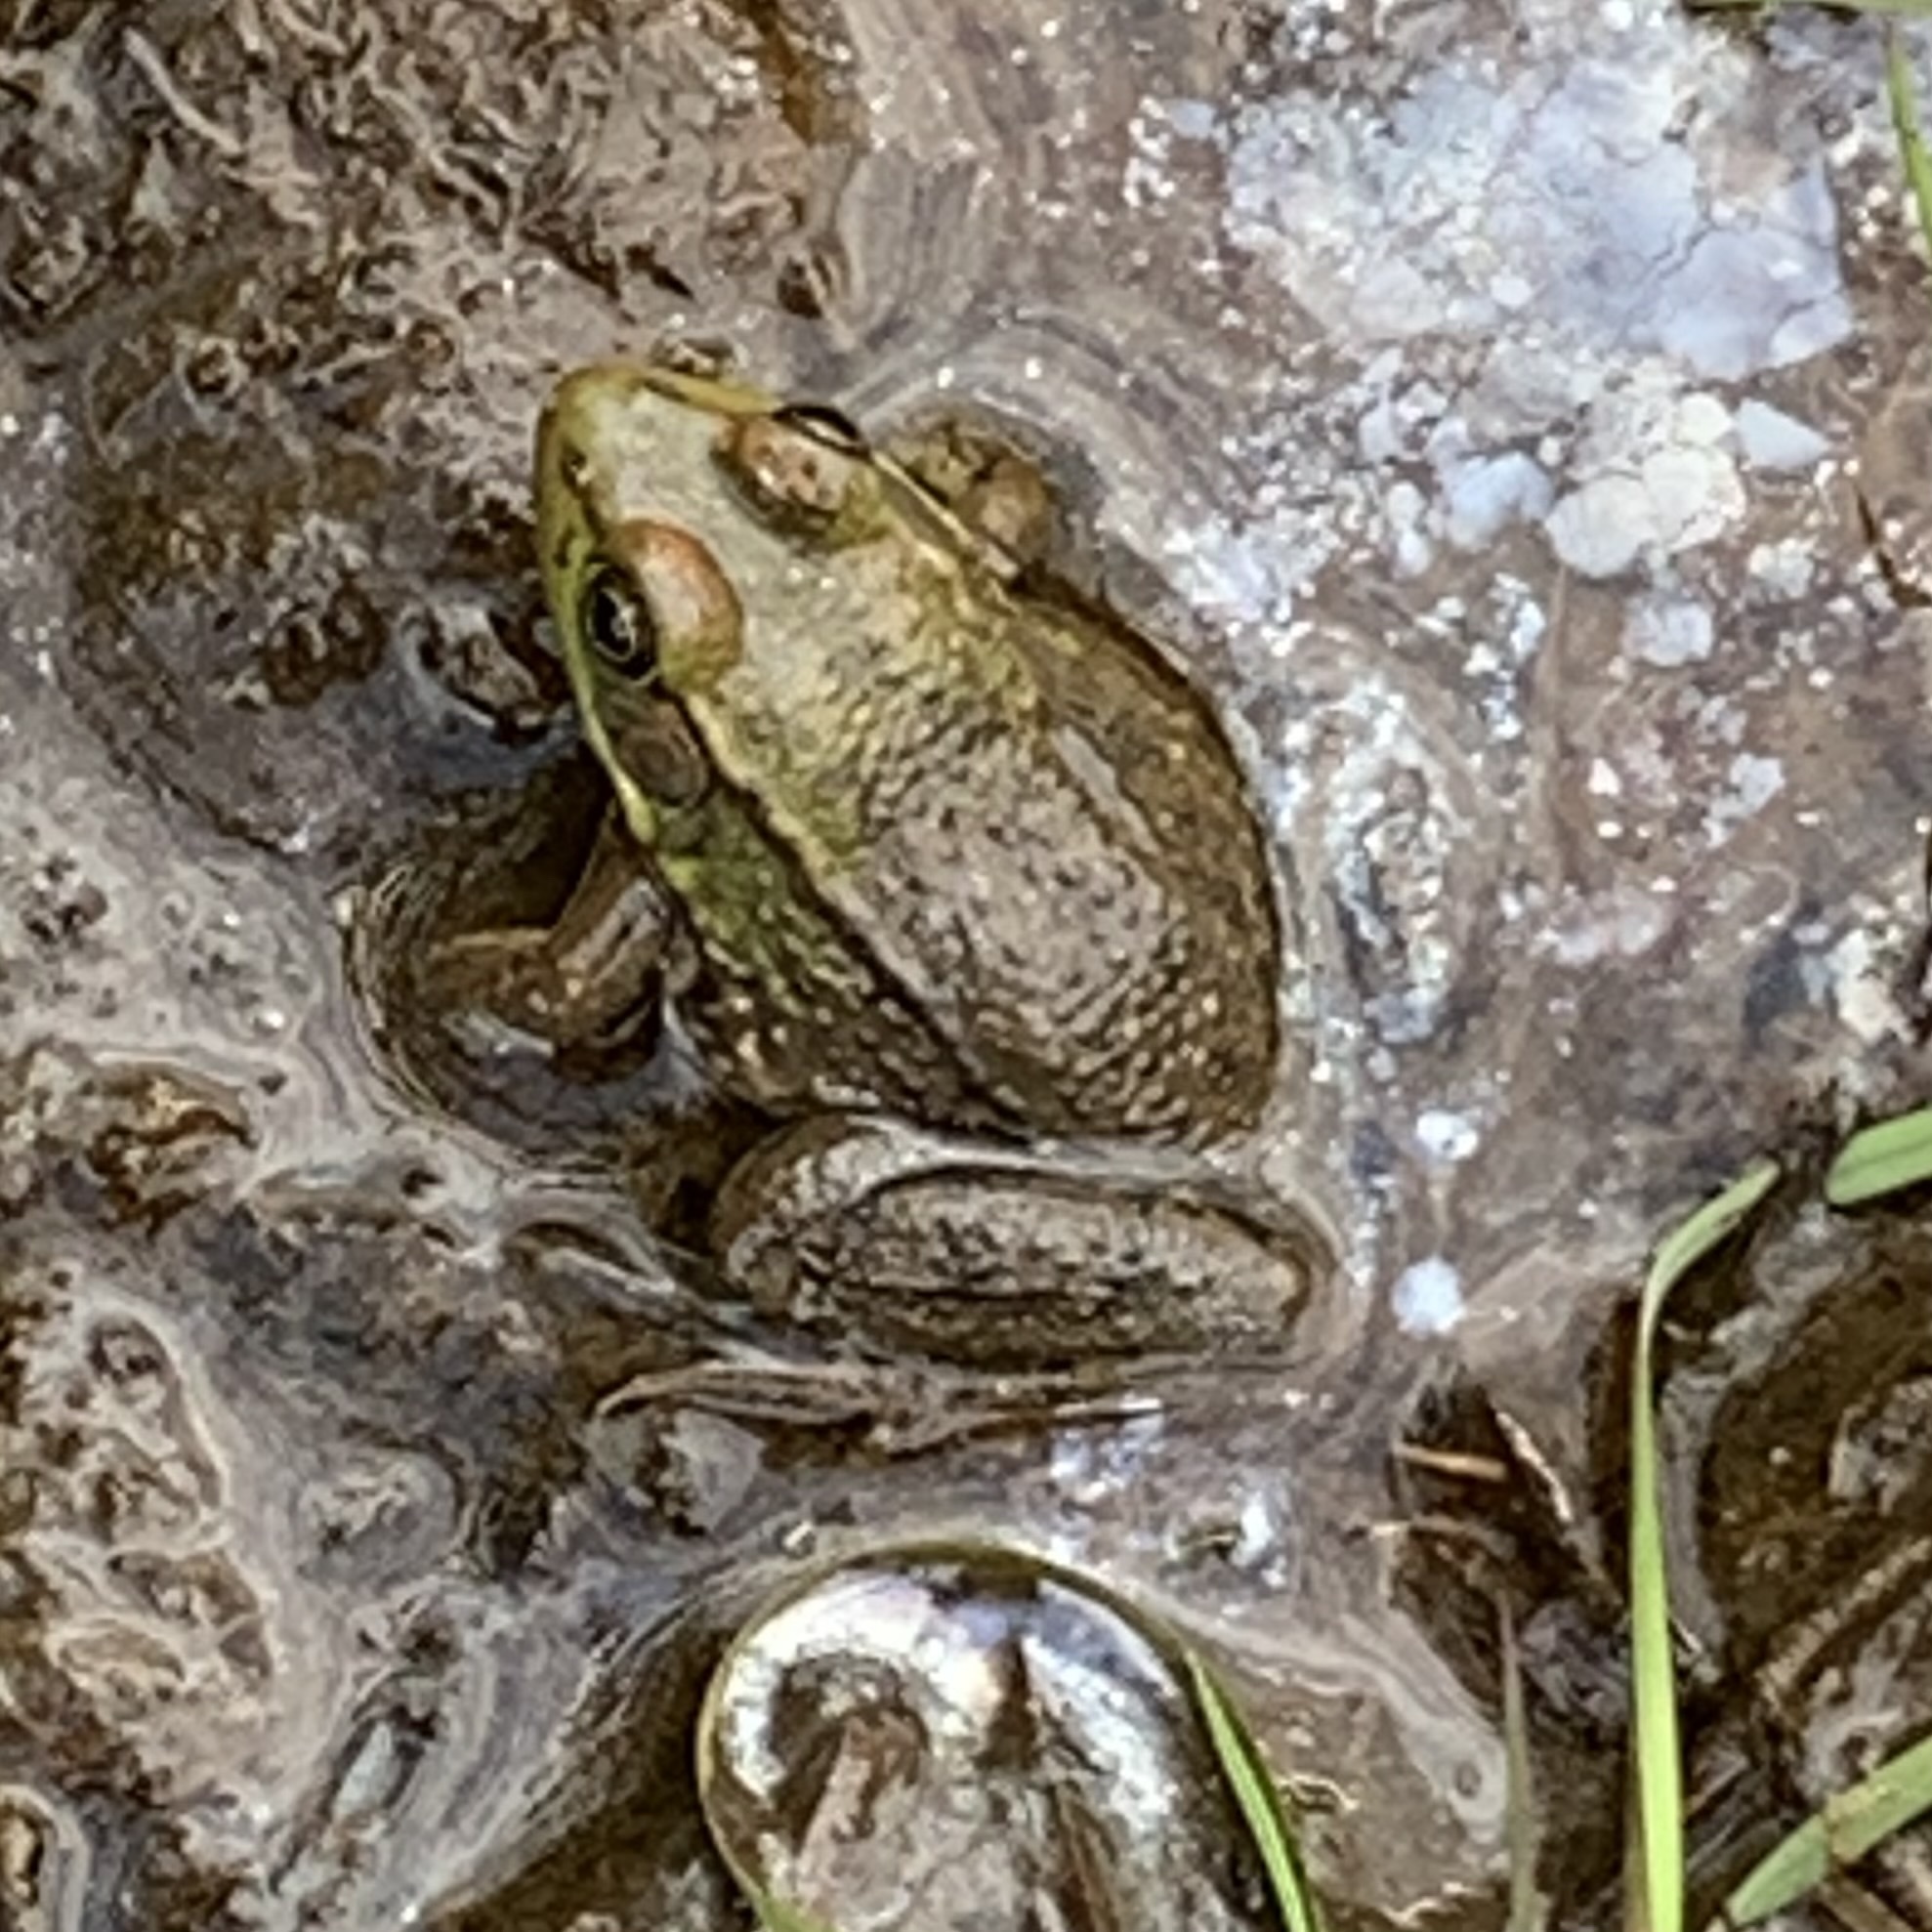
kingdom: Animalia
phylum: Chordata
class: Amphibia
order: Anura
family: Ranidae
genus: Lithobates
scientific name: Lithobates clamitans
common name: Green frog
